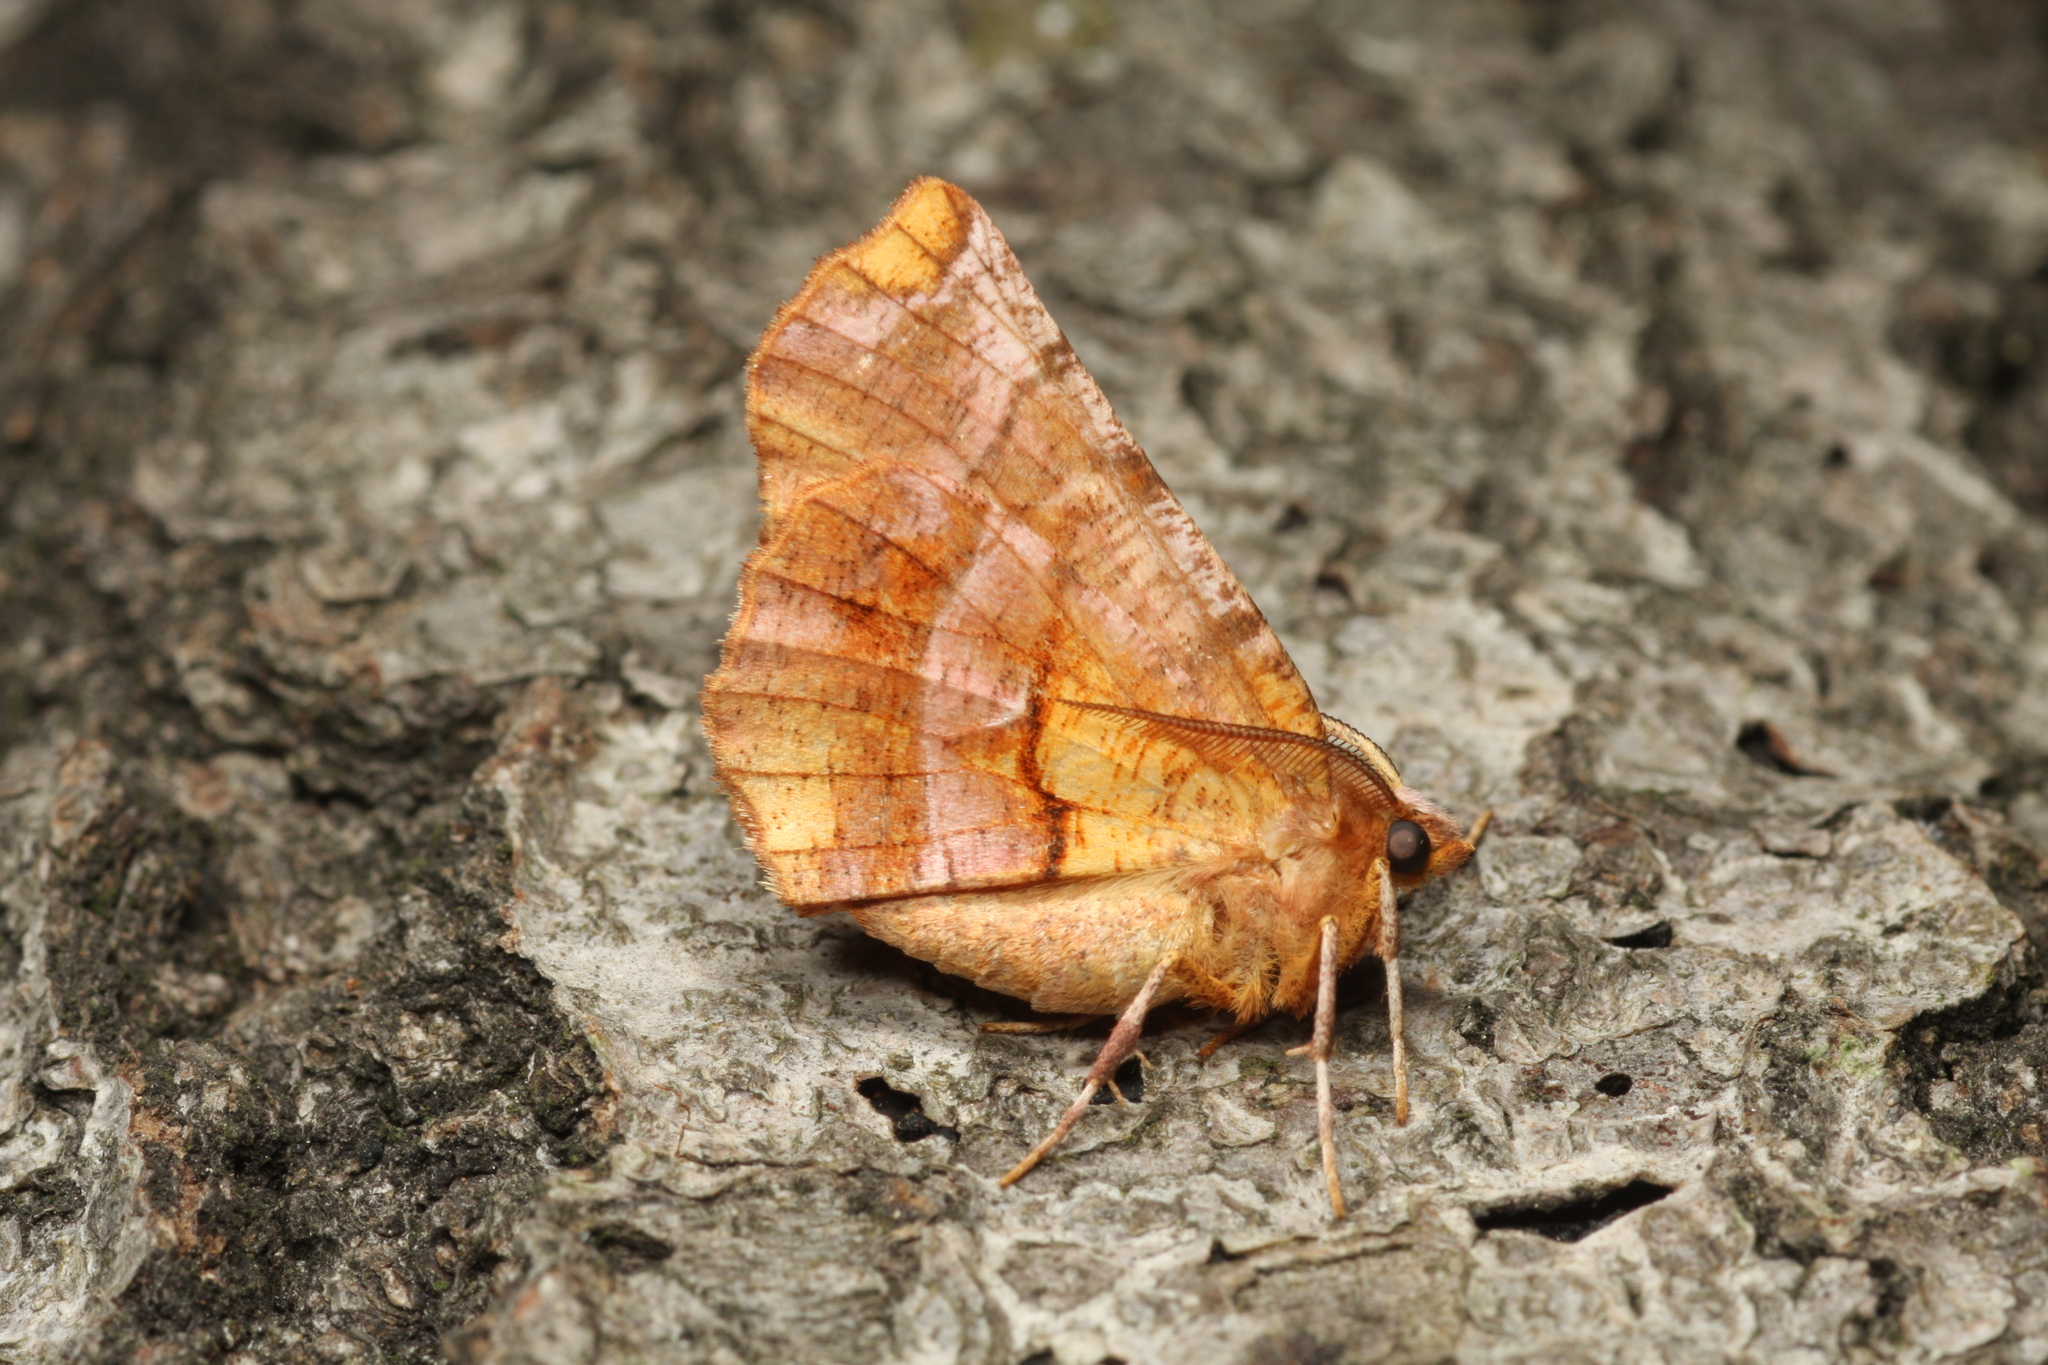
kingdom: Animalia
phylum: Arthropoda
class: Insecta
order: Lepidoptera
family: Geometridae
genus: Selenia
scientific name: Selenia dentaria
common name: Early thorn
